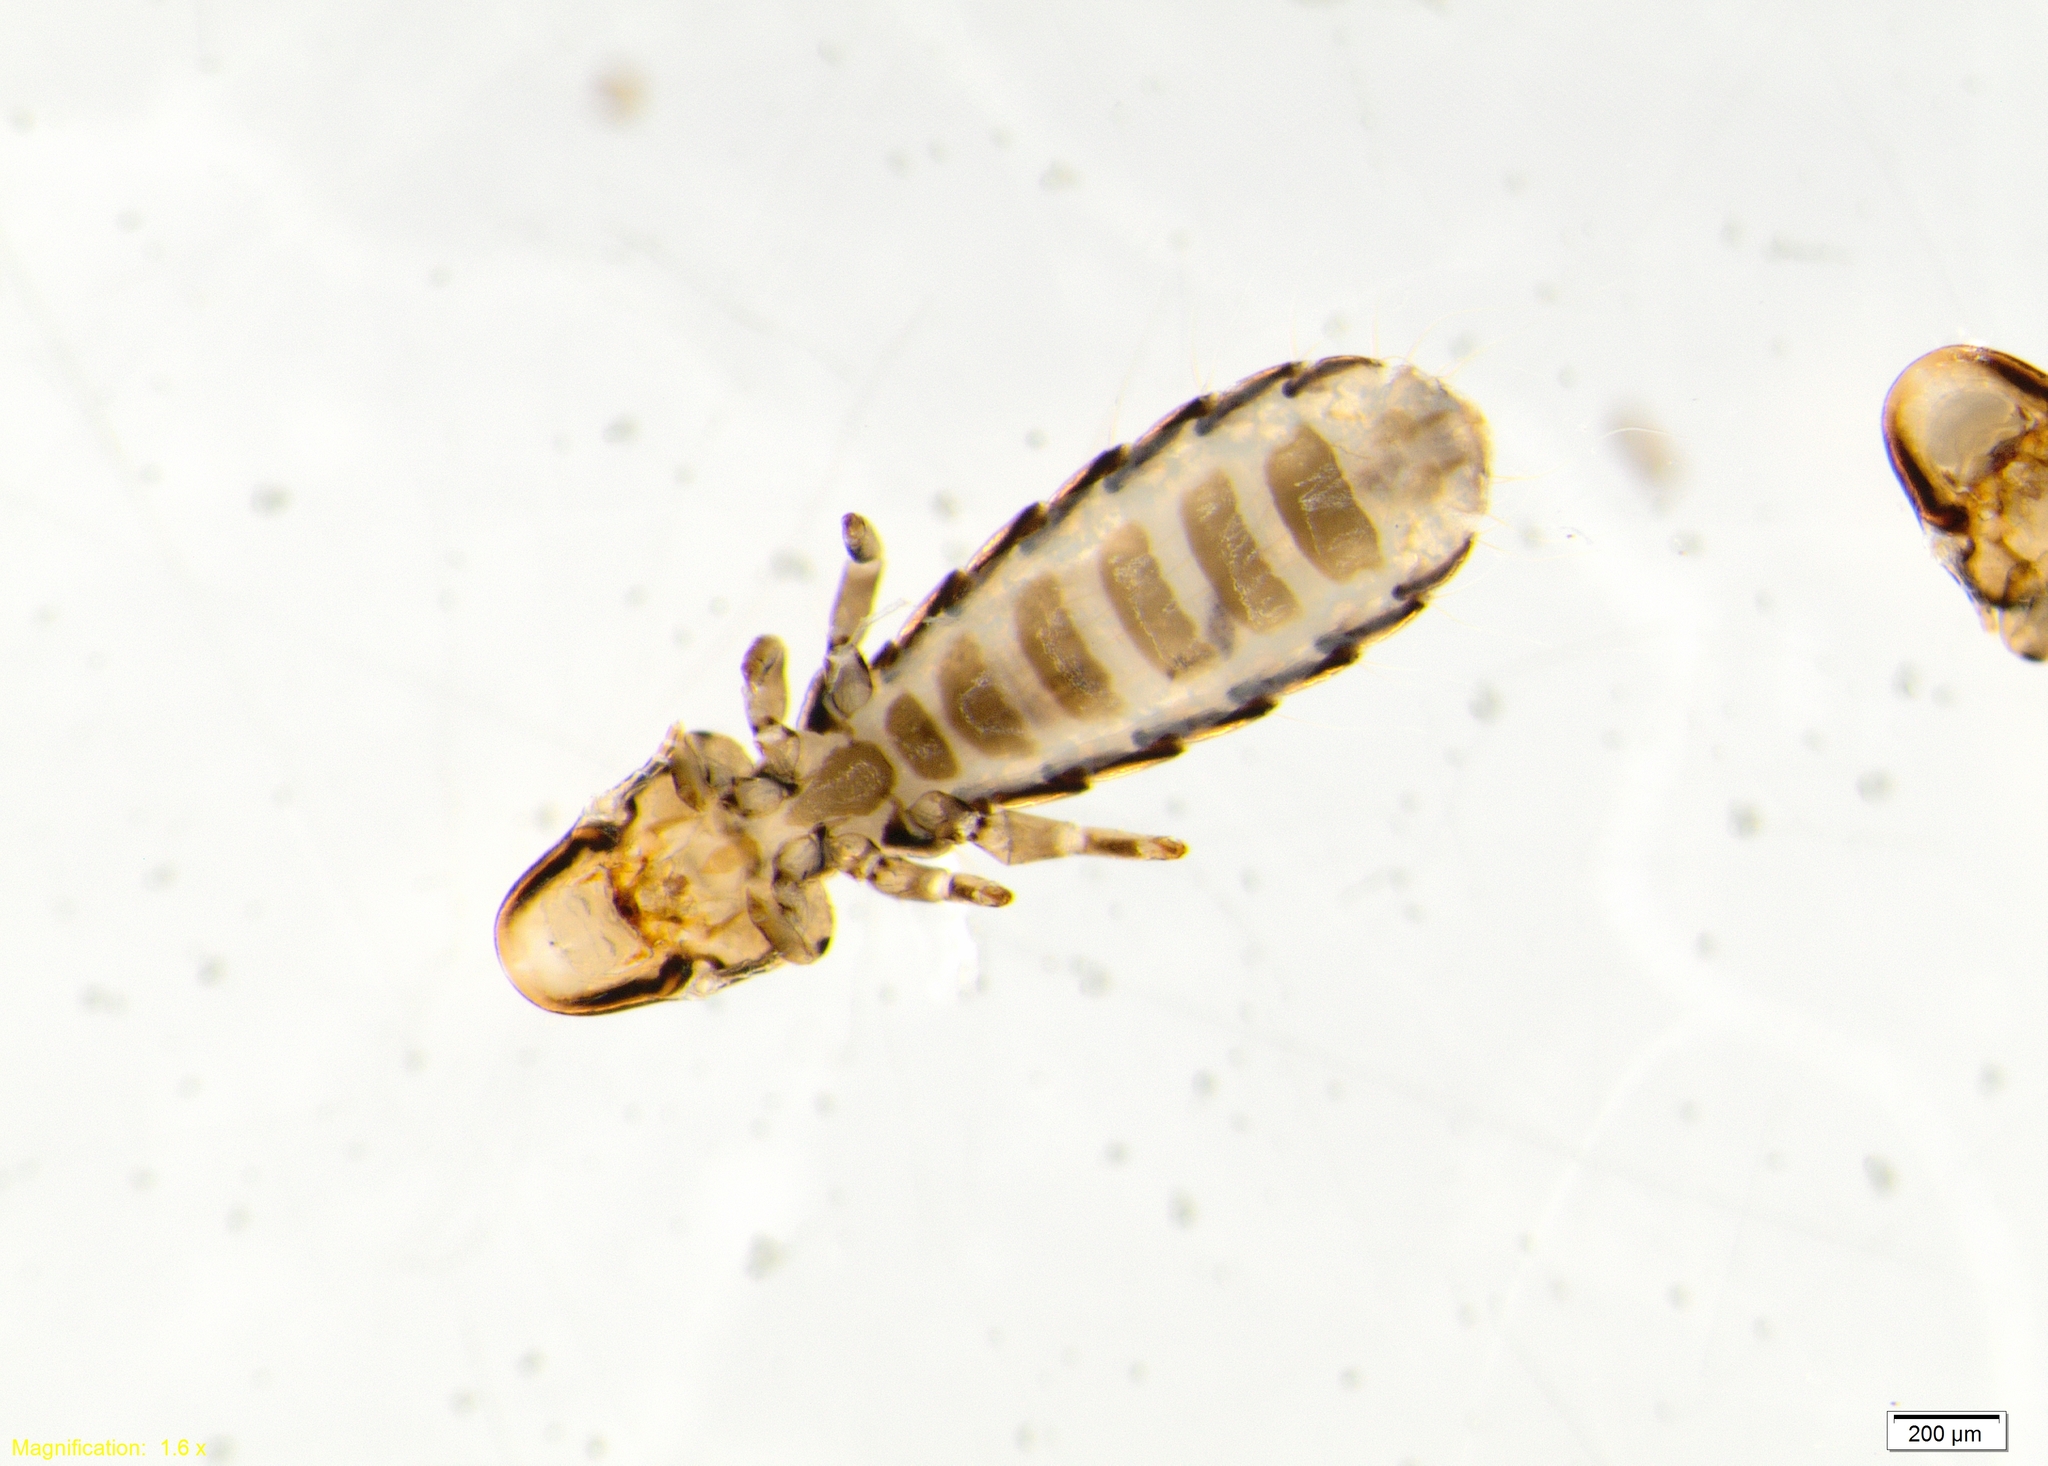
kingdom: Animalia
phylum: Arthropoda
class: Insecta
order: Psocodea
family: Philopteridae
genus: Degeeriella
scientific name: Degeeriella fusca
